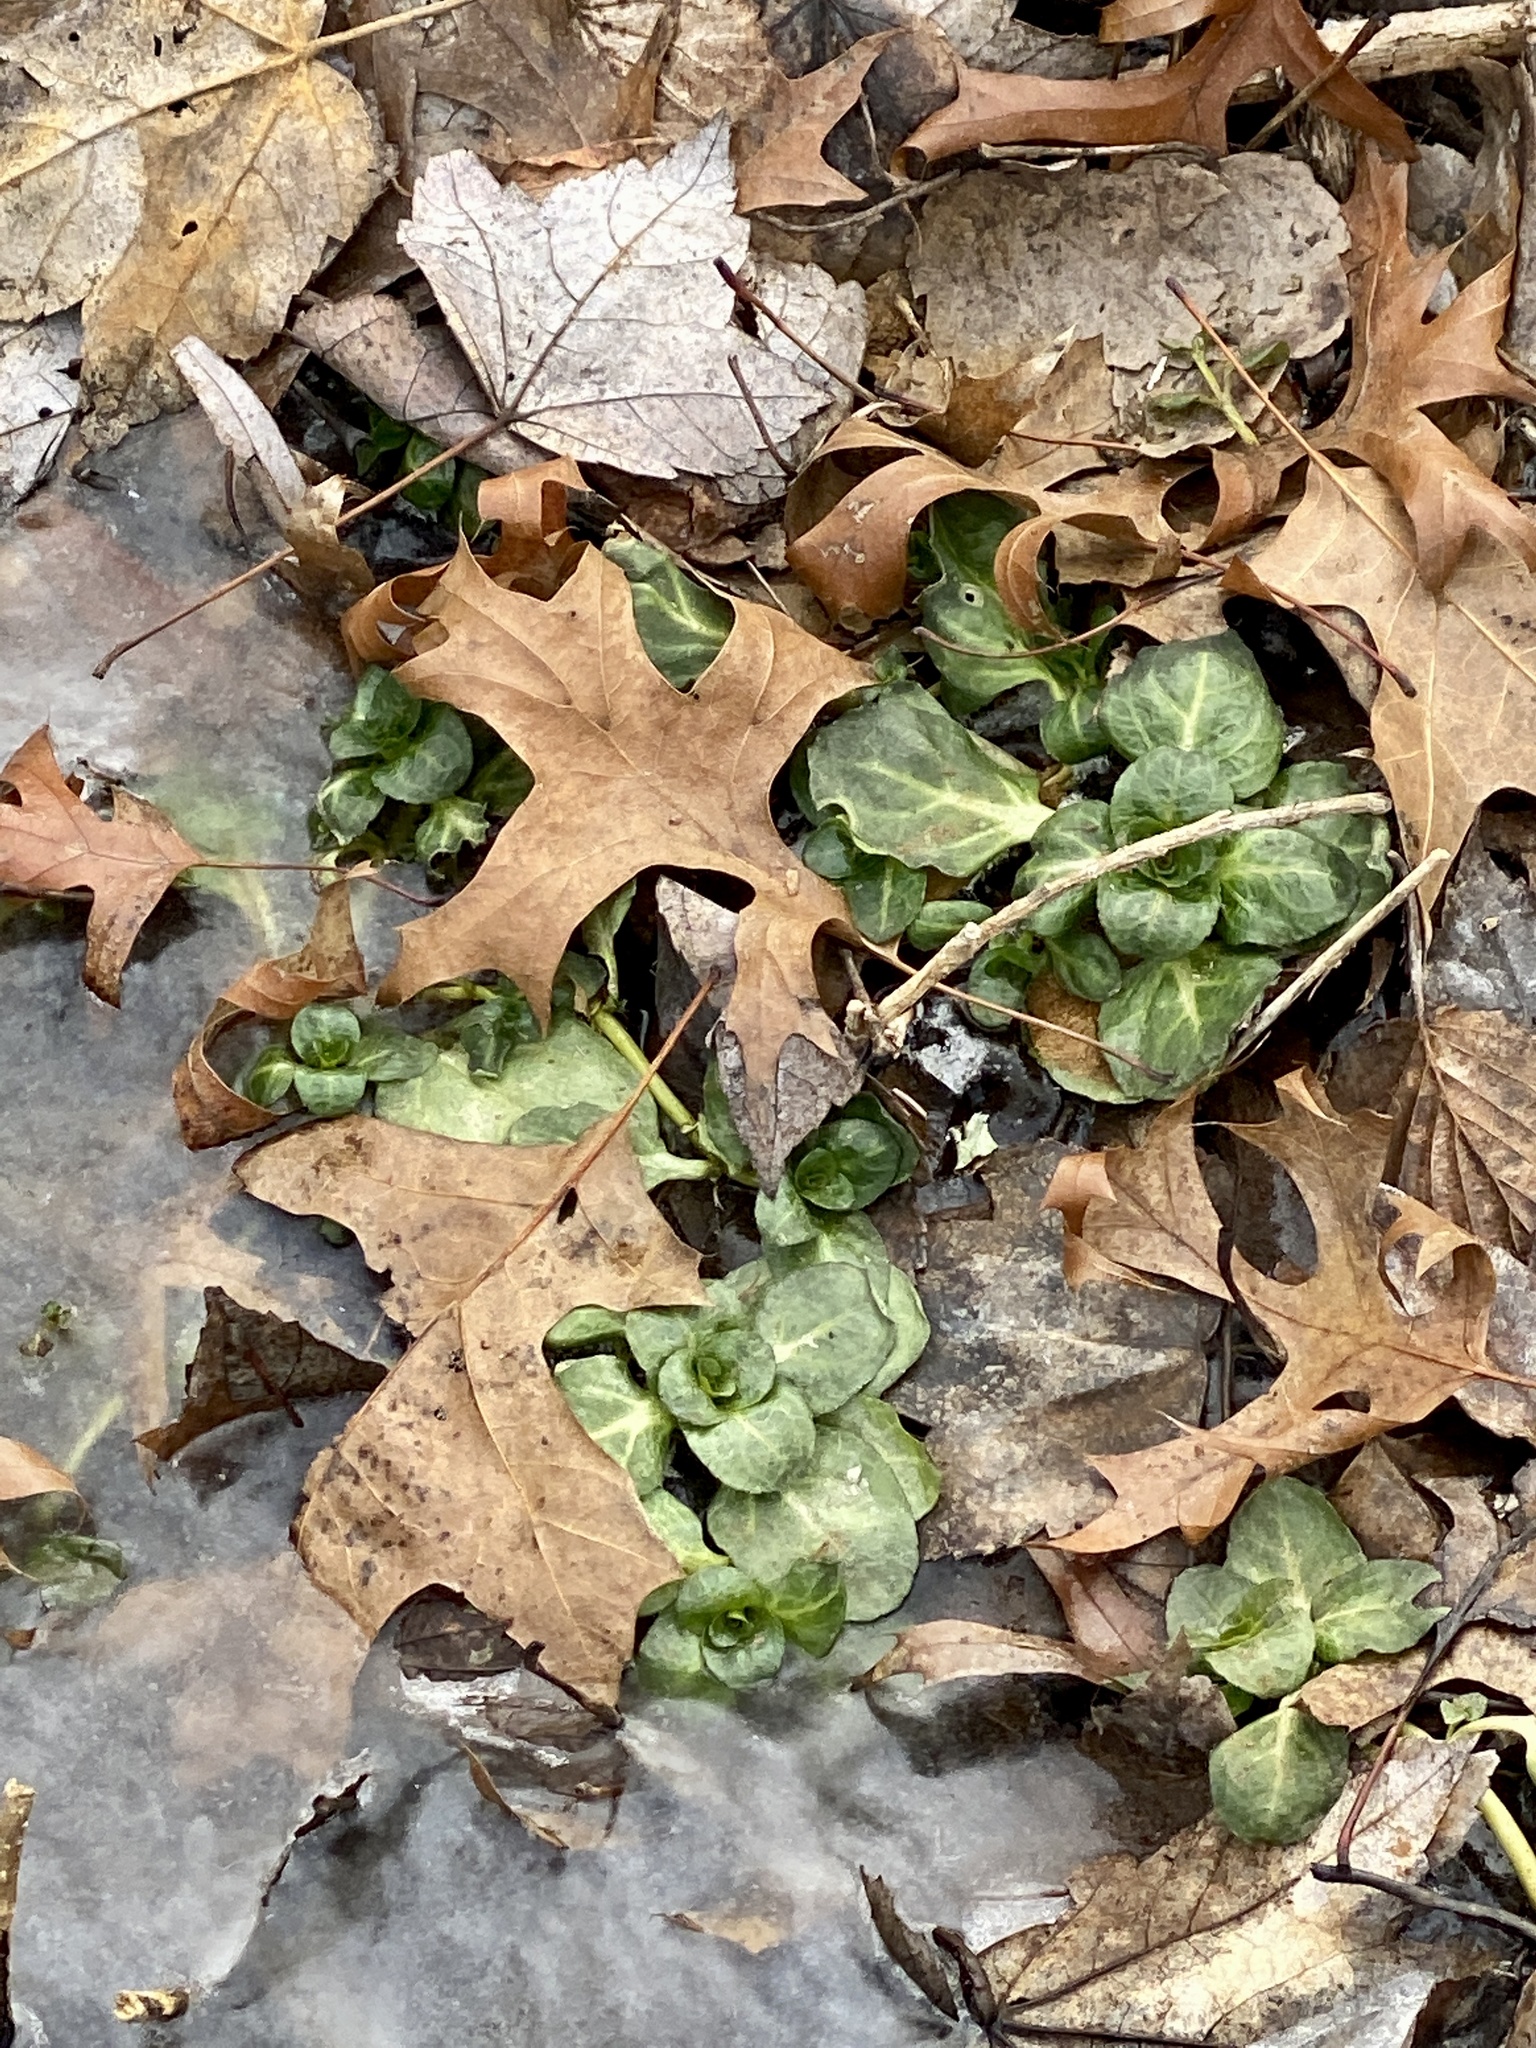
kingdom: Plantae
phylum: Tracheophyta
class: Magnoliopsida
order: Lamiales
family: Plantaginaceae
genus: Veronica
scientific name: Veronica americana
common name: American brooklime
